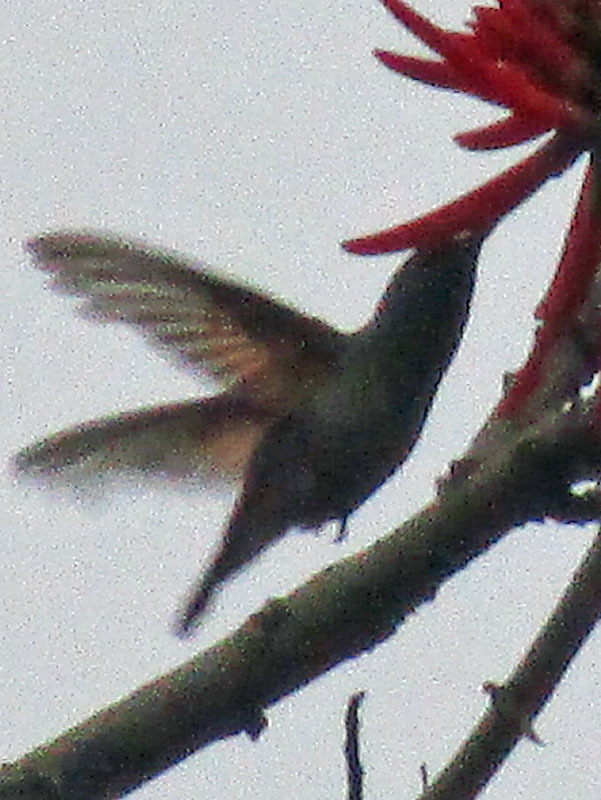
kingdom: Animalia
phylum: Chordata
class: Aves
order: Apodiformes
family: Trochilidae
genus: Saucerottia
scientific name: Saucerottia beryllina
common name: Berylline hummingbird
